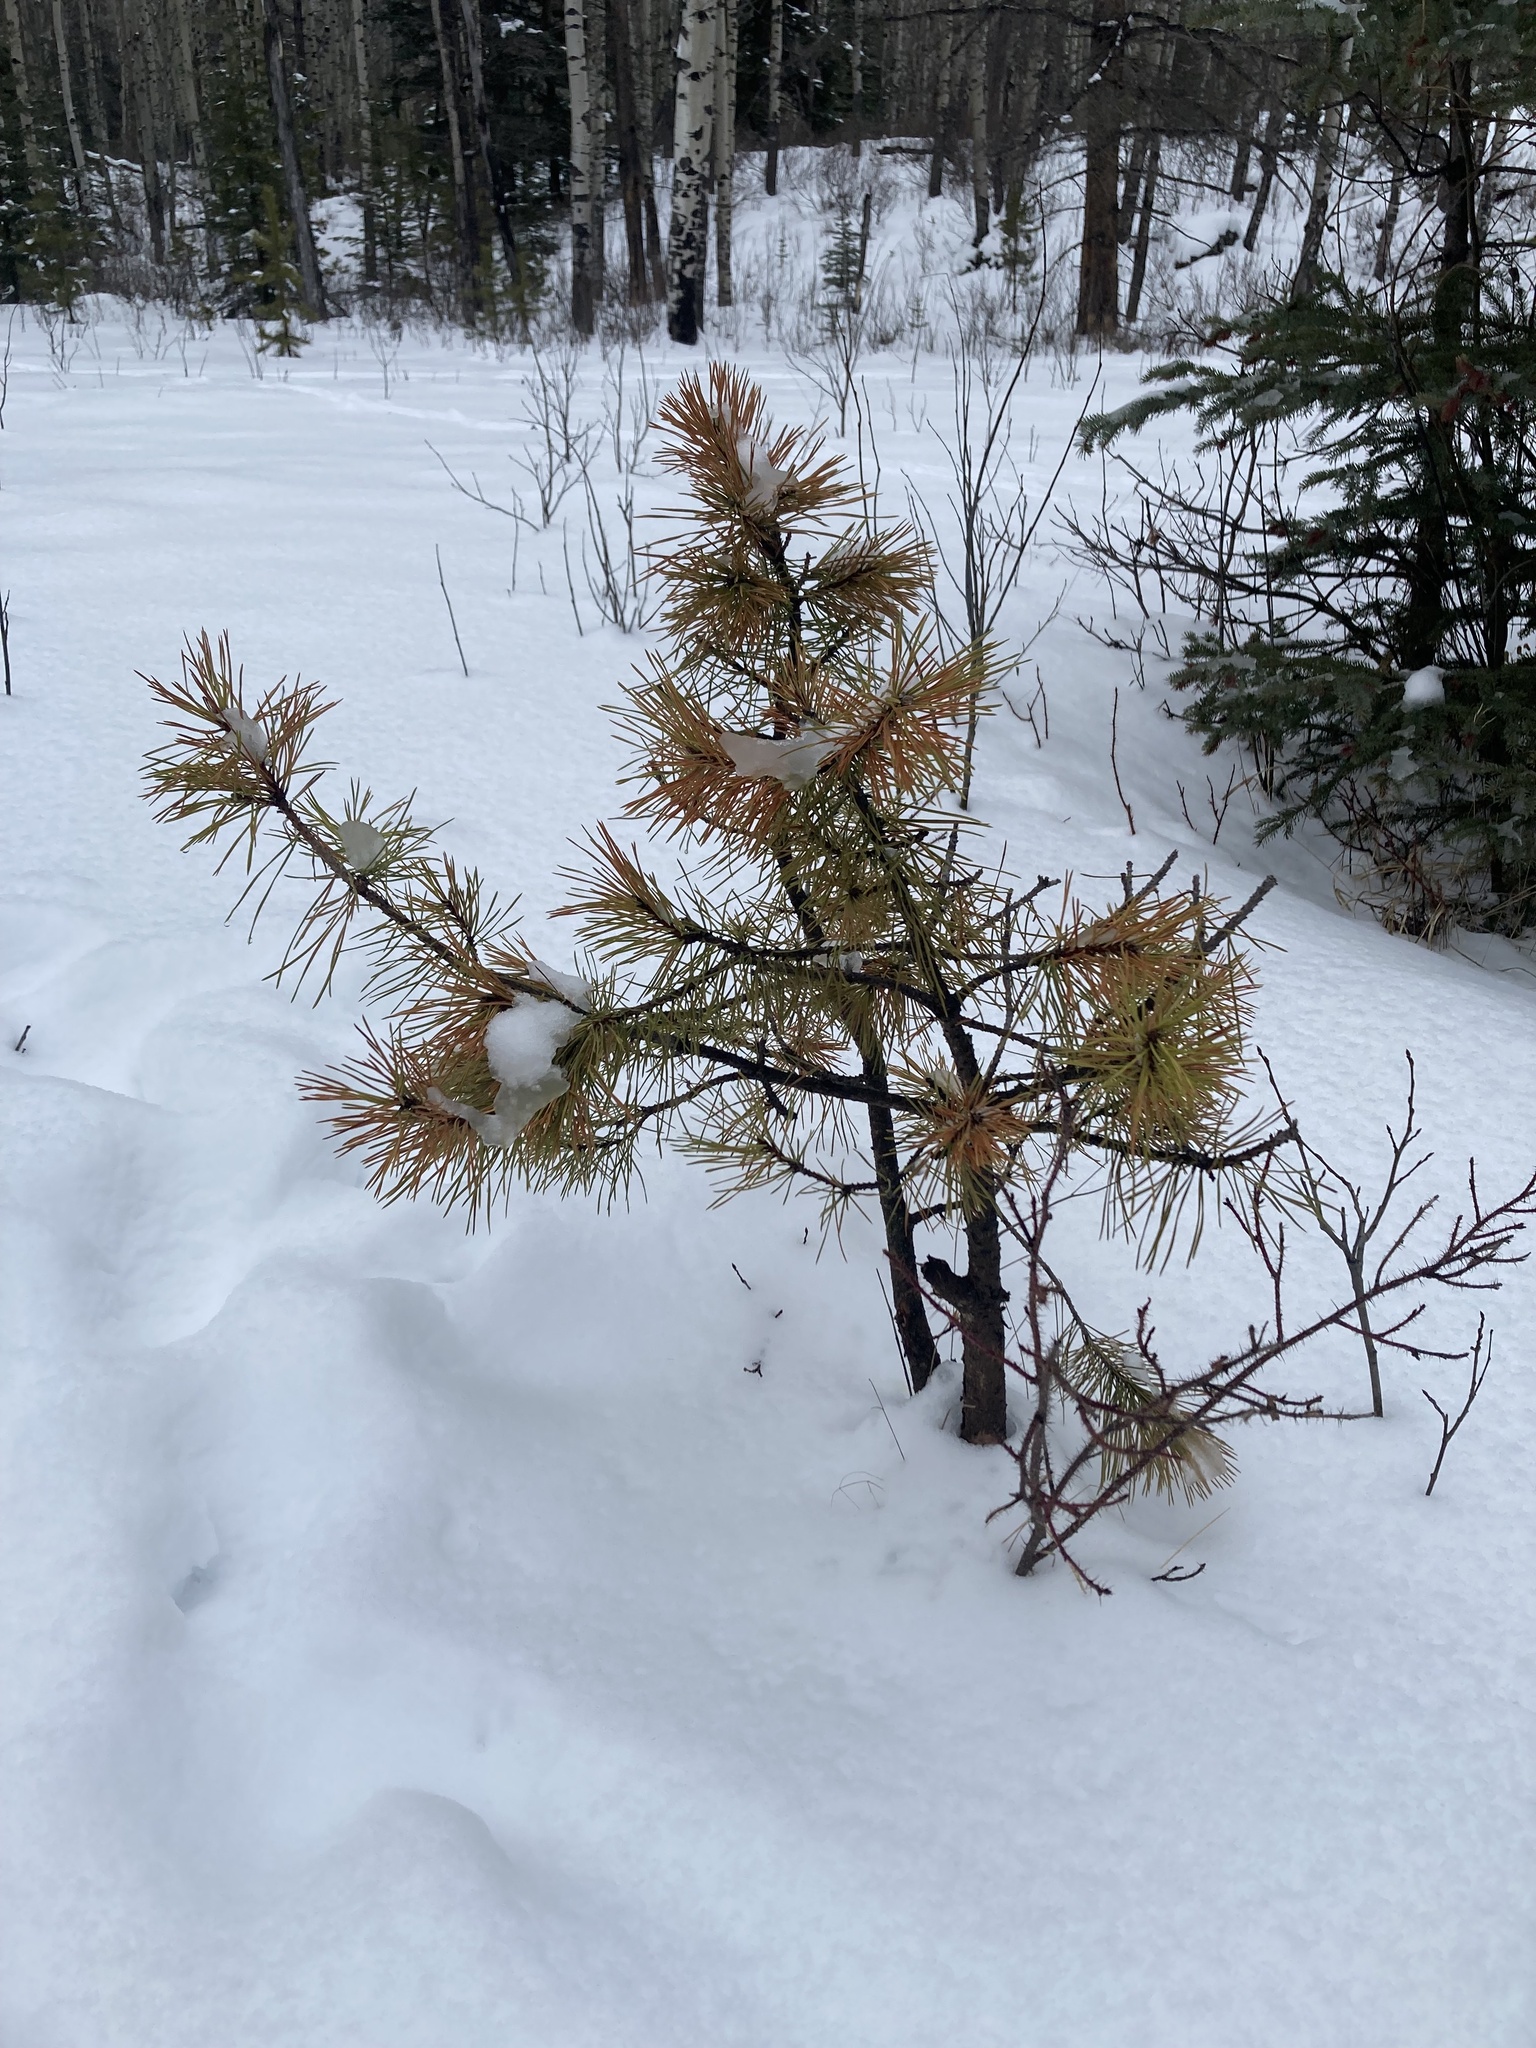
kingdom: Plantae
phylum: Tracheophyta
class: Pinopsida
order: Pinales
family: Pinaceae
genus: Pinus
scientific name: Pinus contorta
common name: Lodgepole pine
